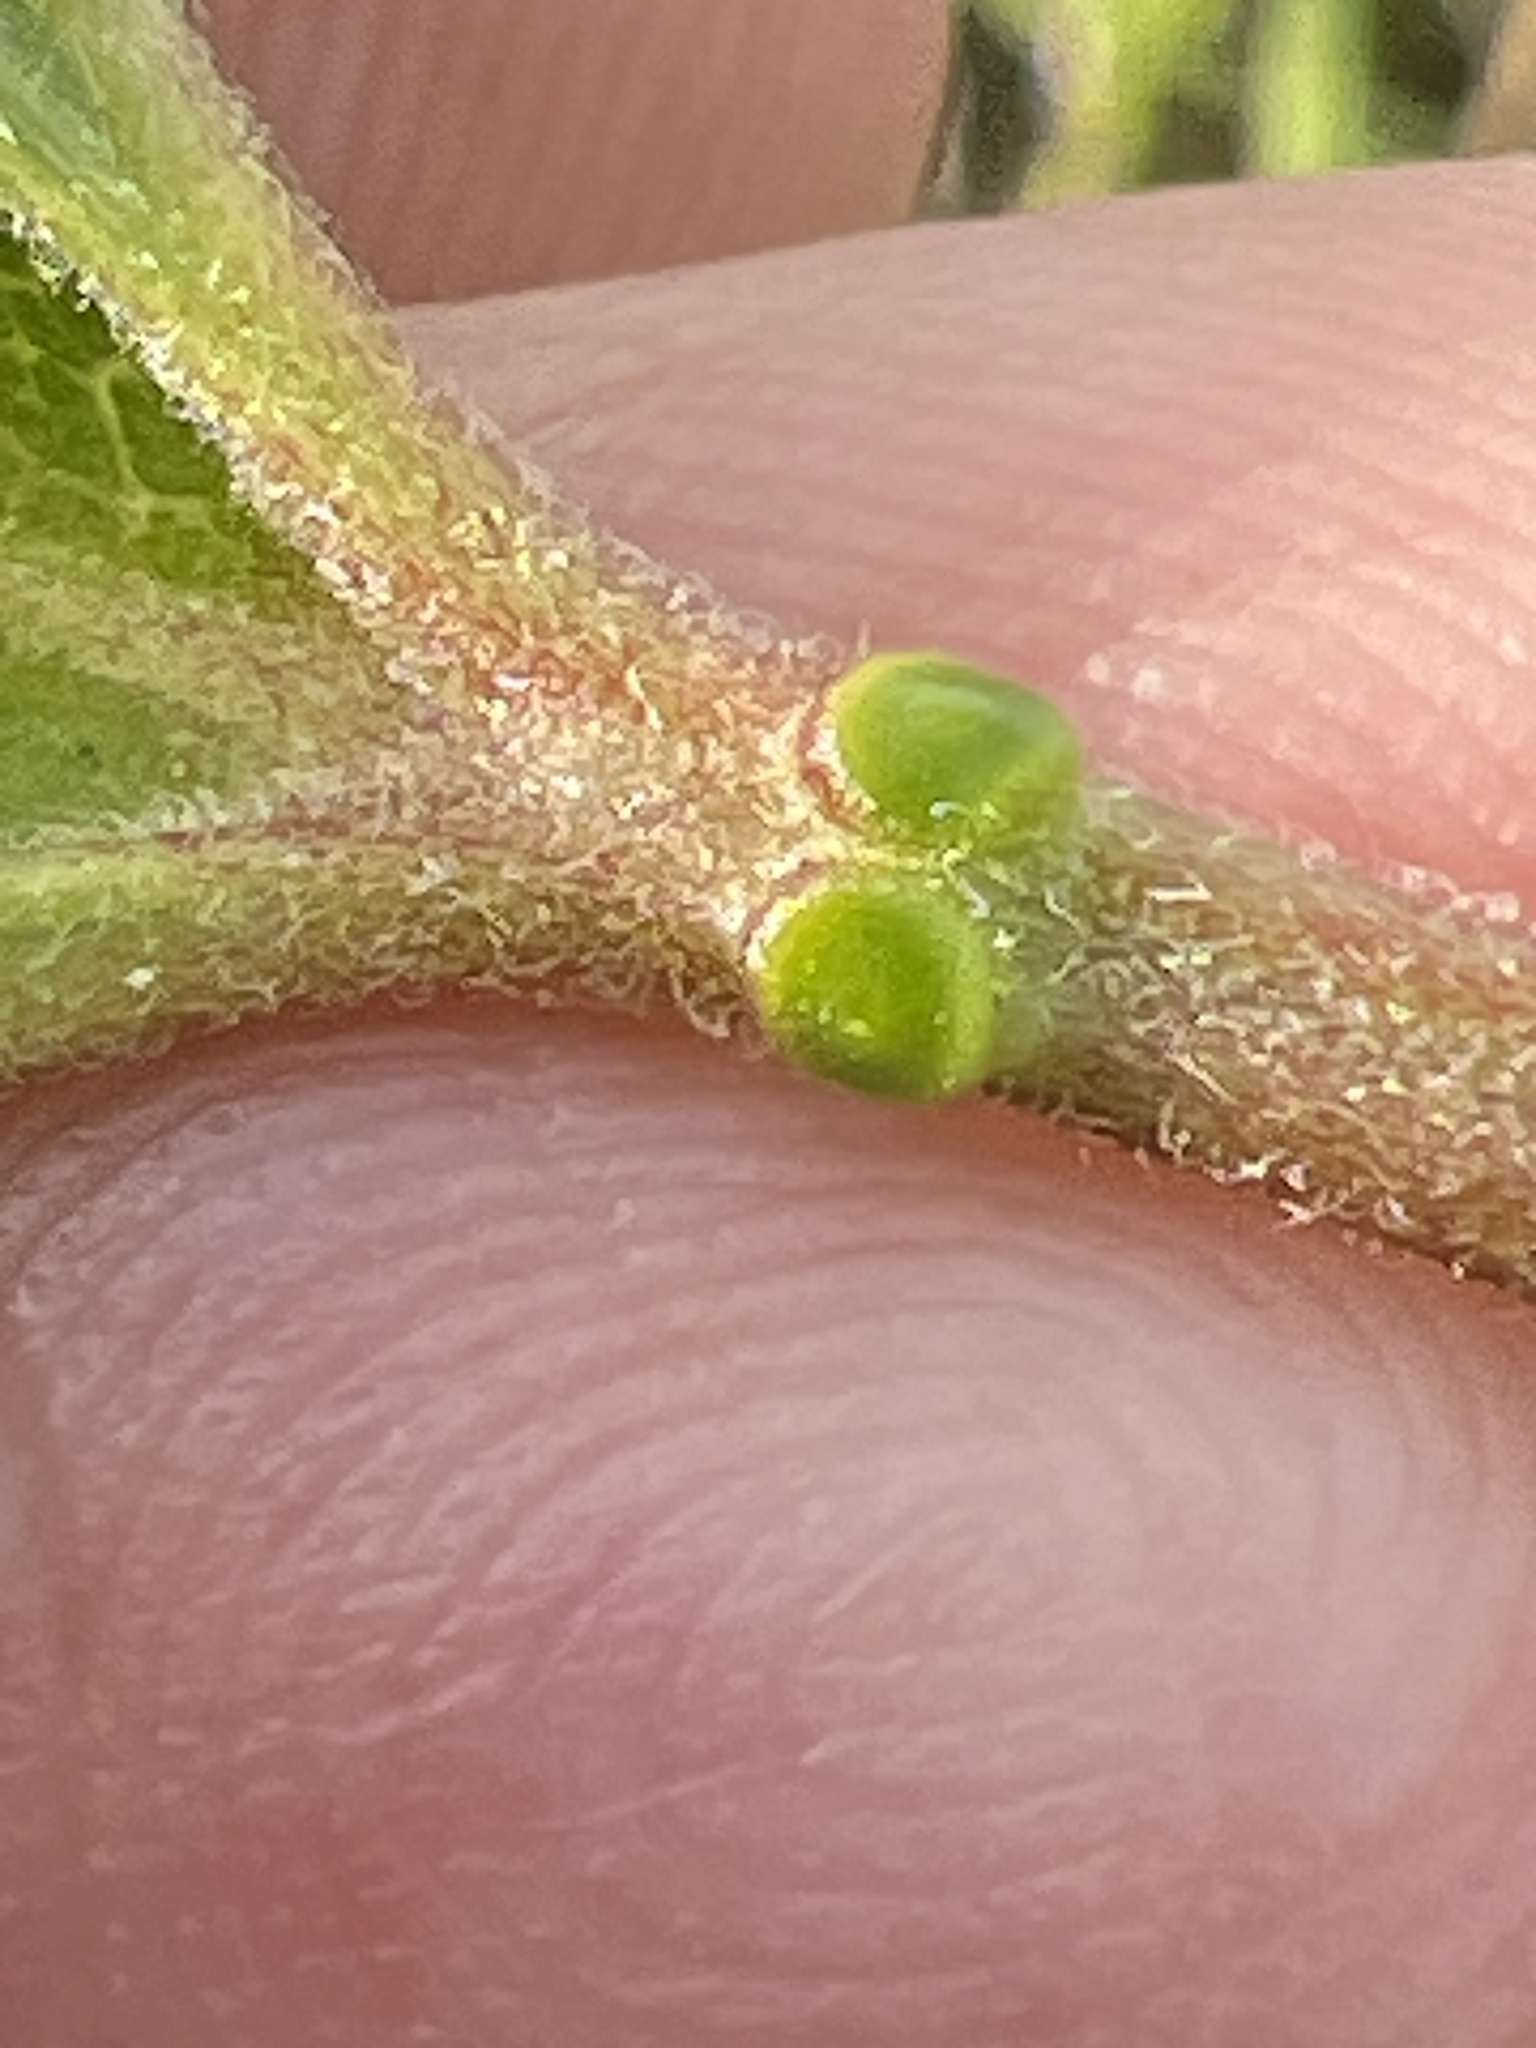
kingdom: Plantae
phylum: Tracheophyta
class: Magnoliopsida
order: Malpighiales
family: Passifloraceae
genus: Passiflora
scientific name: Passiflora incarnata
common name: Apricot-vine
